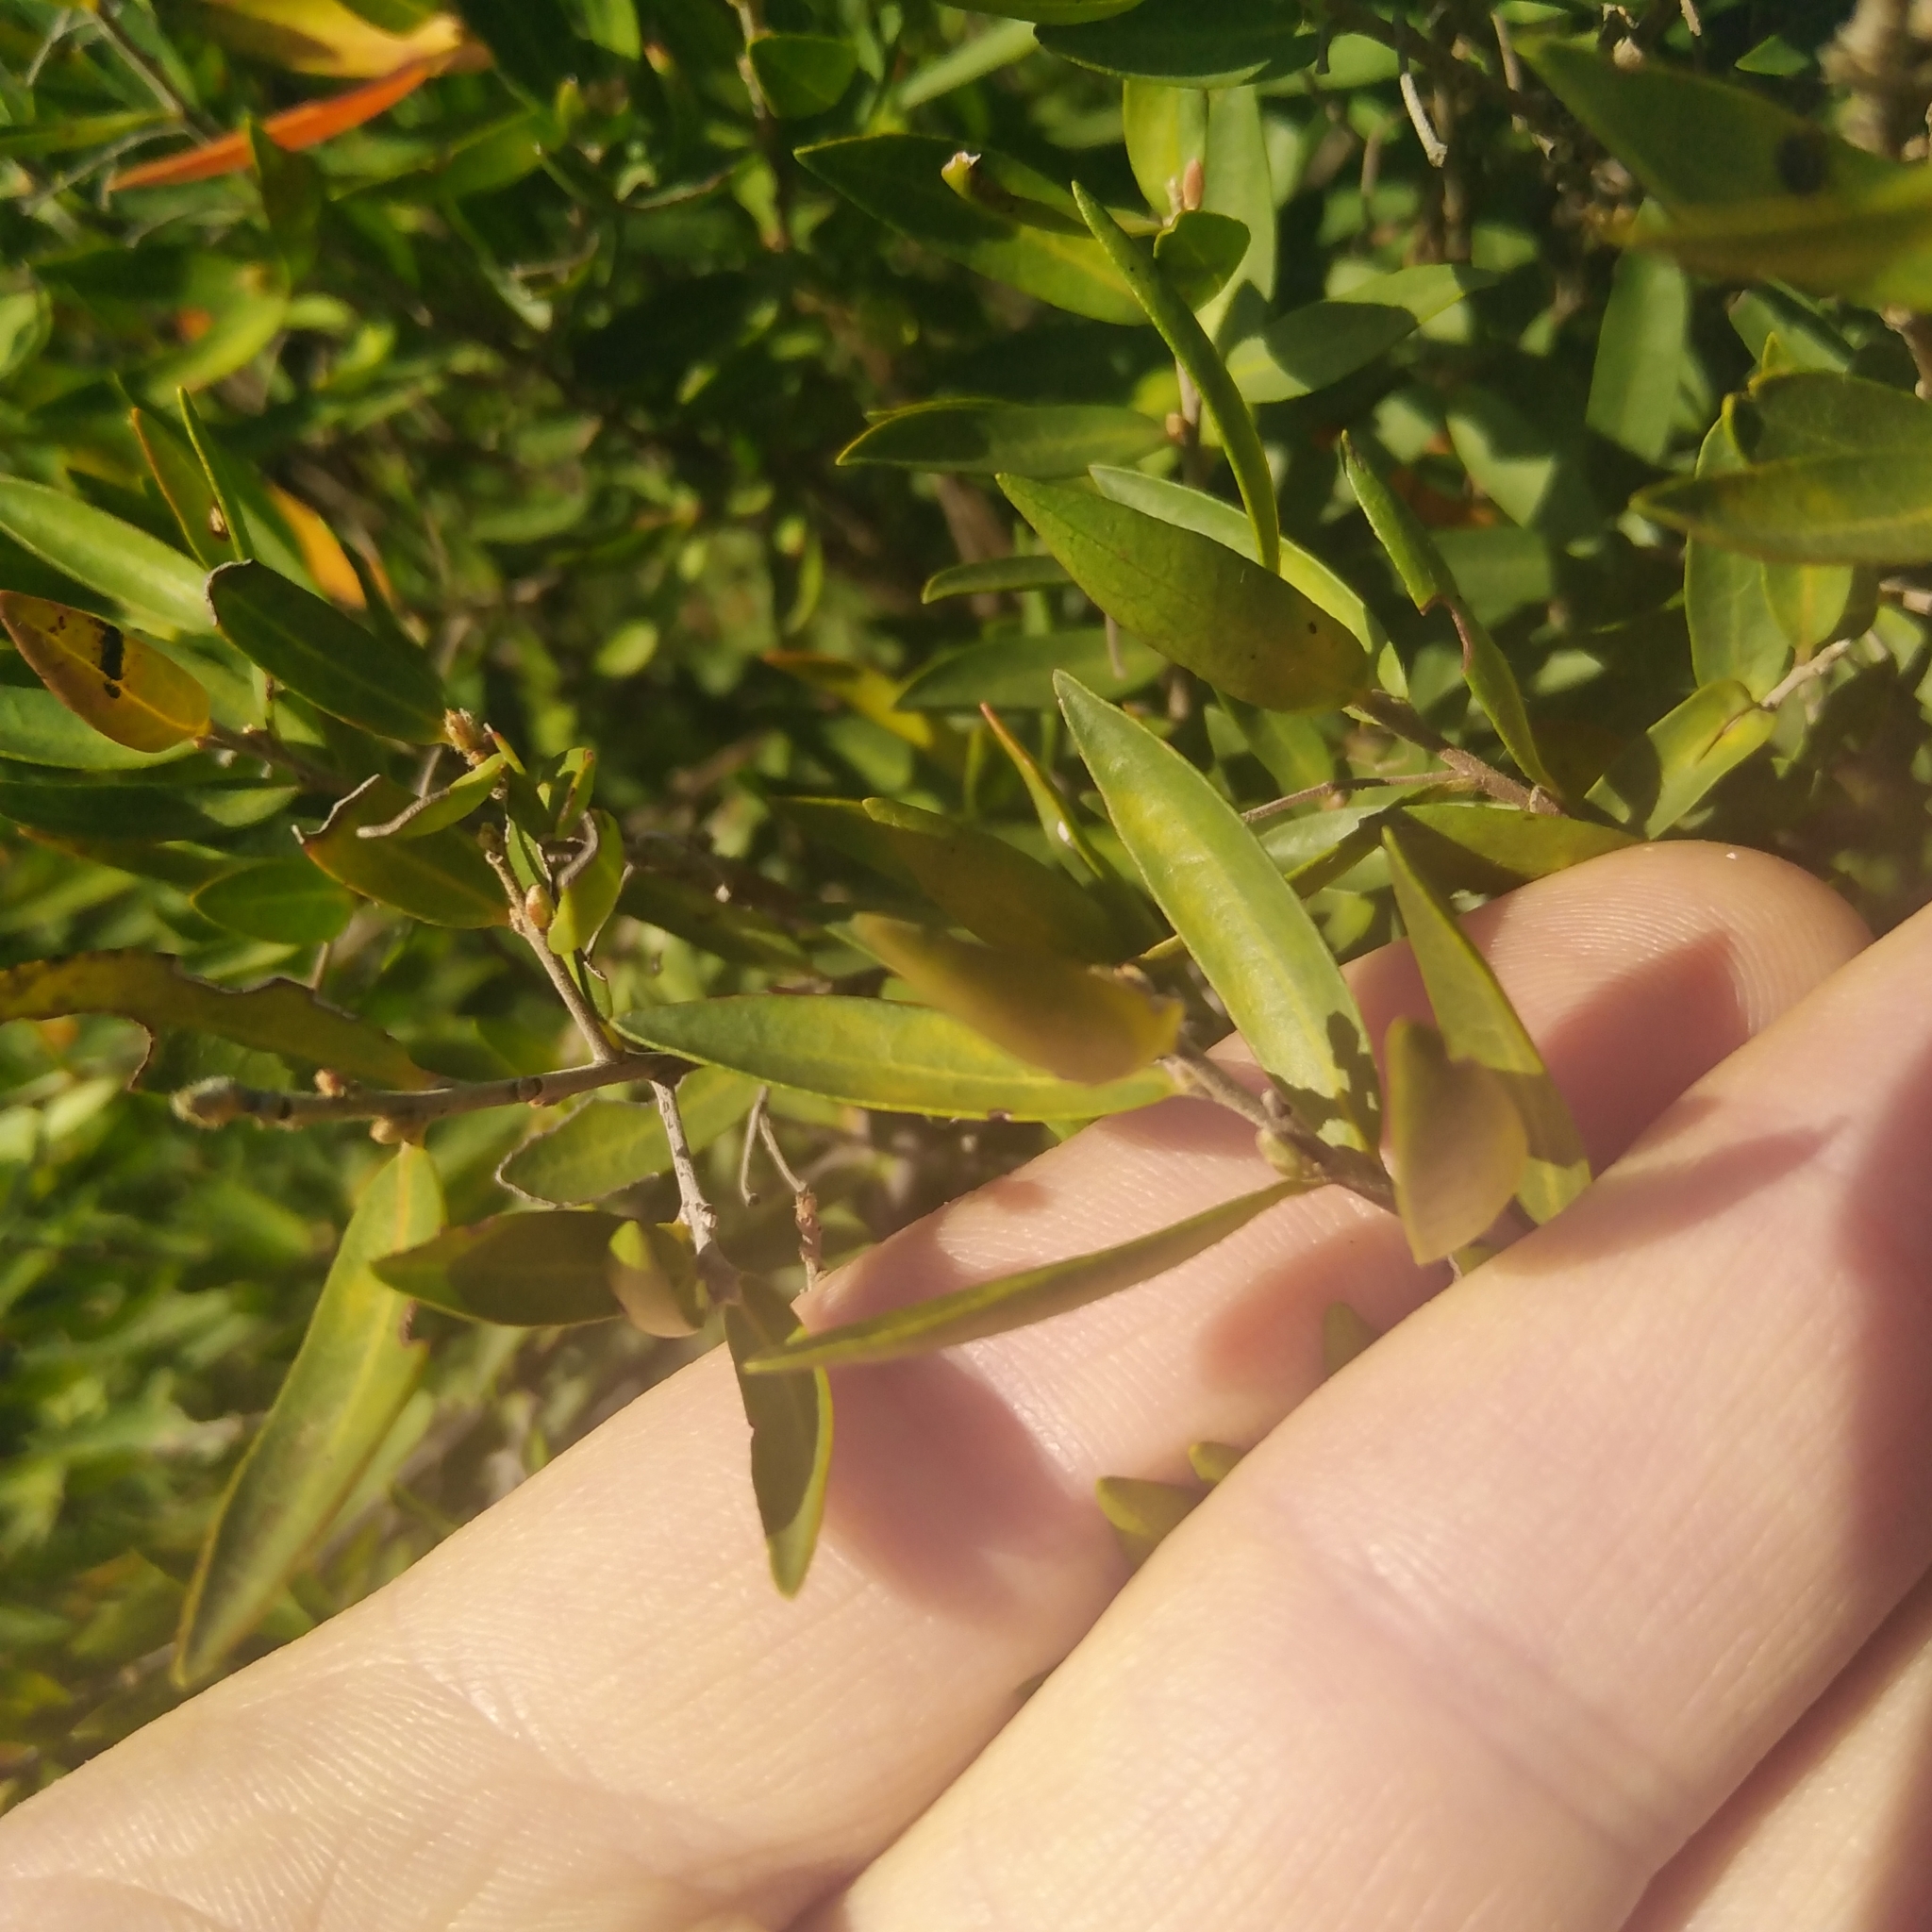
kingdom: Plantae
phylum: Tracheophyta
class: Magnoliopsida
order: Ericales
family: Ebenaceae
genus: Diospyros
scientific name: Diospyros glabra
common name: Fynbos star apple
